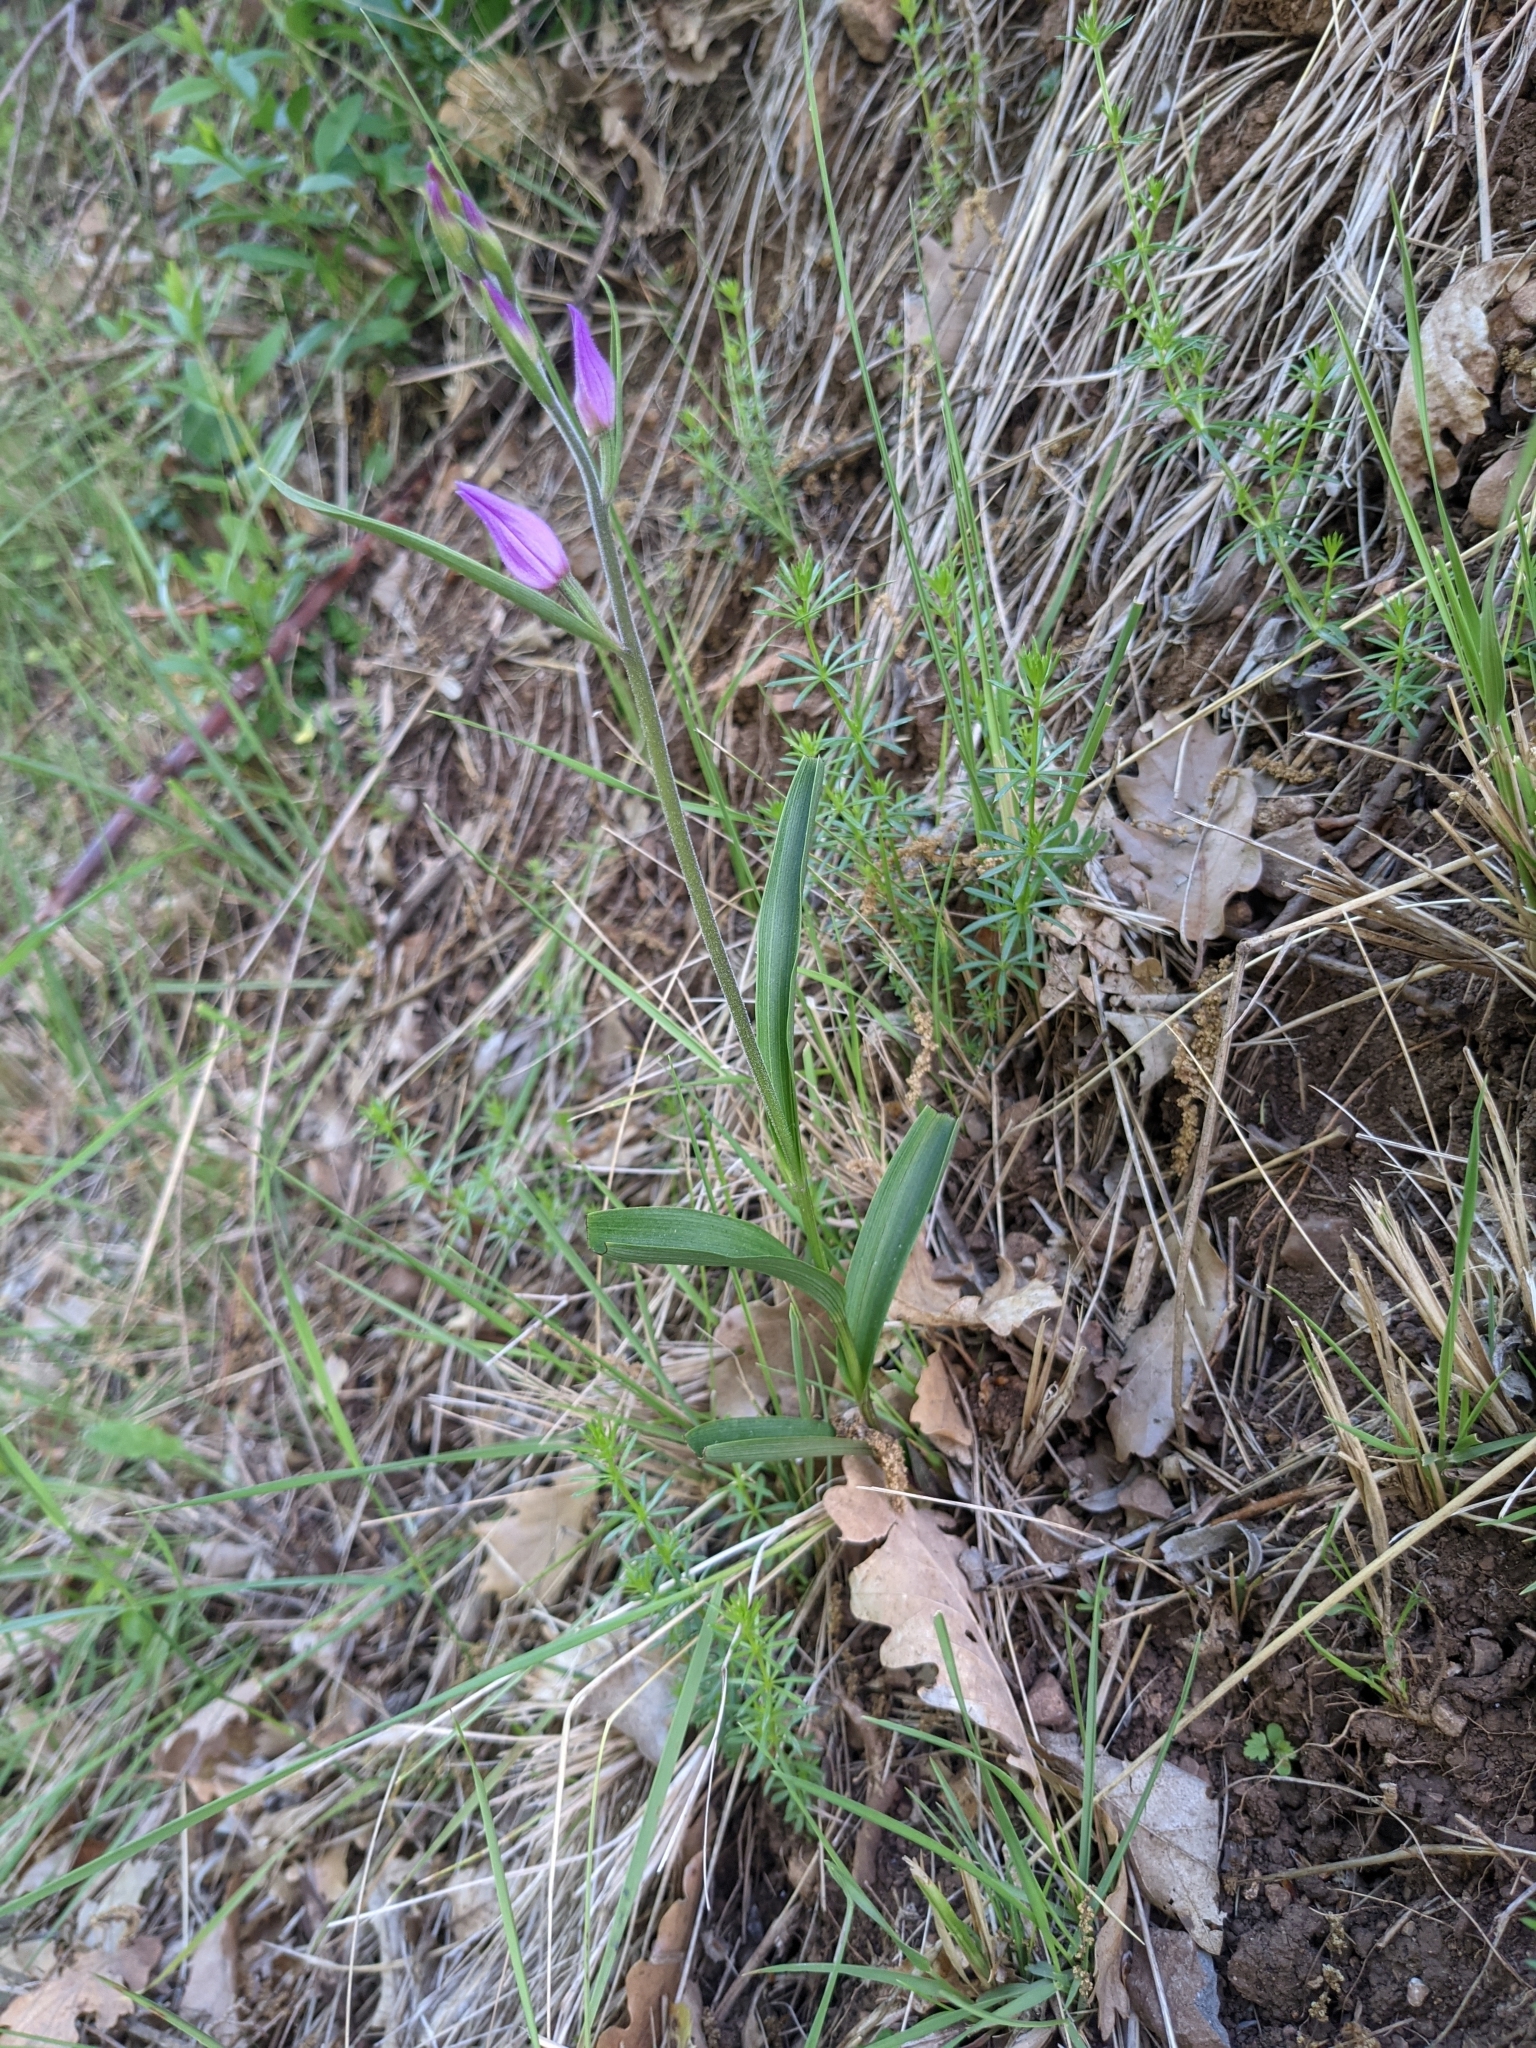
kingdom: Plantae
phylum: Tracheophyta
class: Liliopsida
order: Asparagales
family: Orchidaceae
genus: Cephalanthera
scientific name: Cephalanthera rubra
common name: Red helleborine
